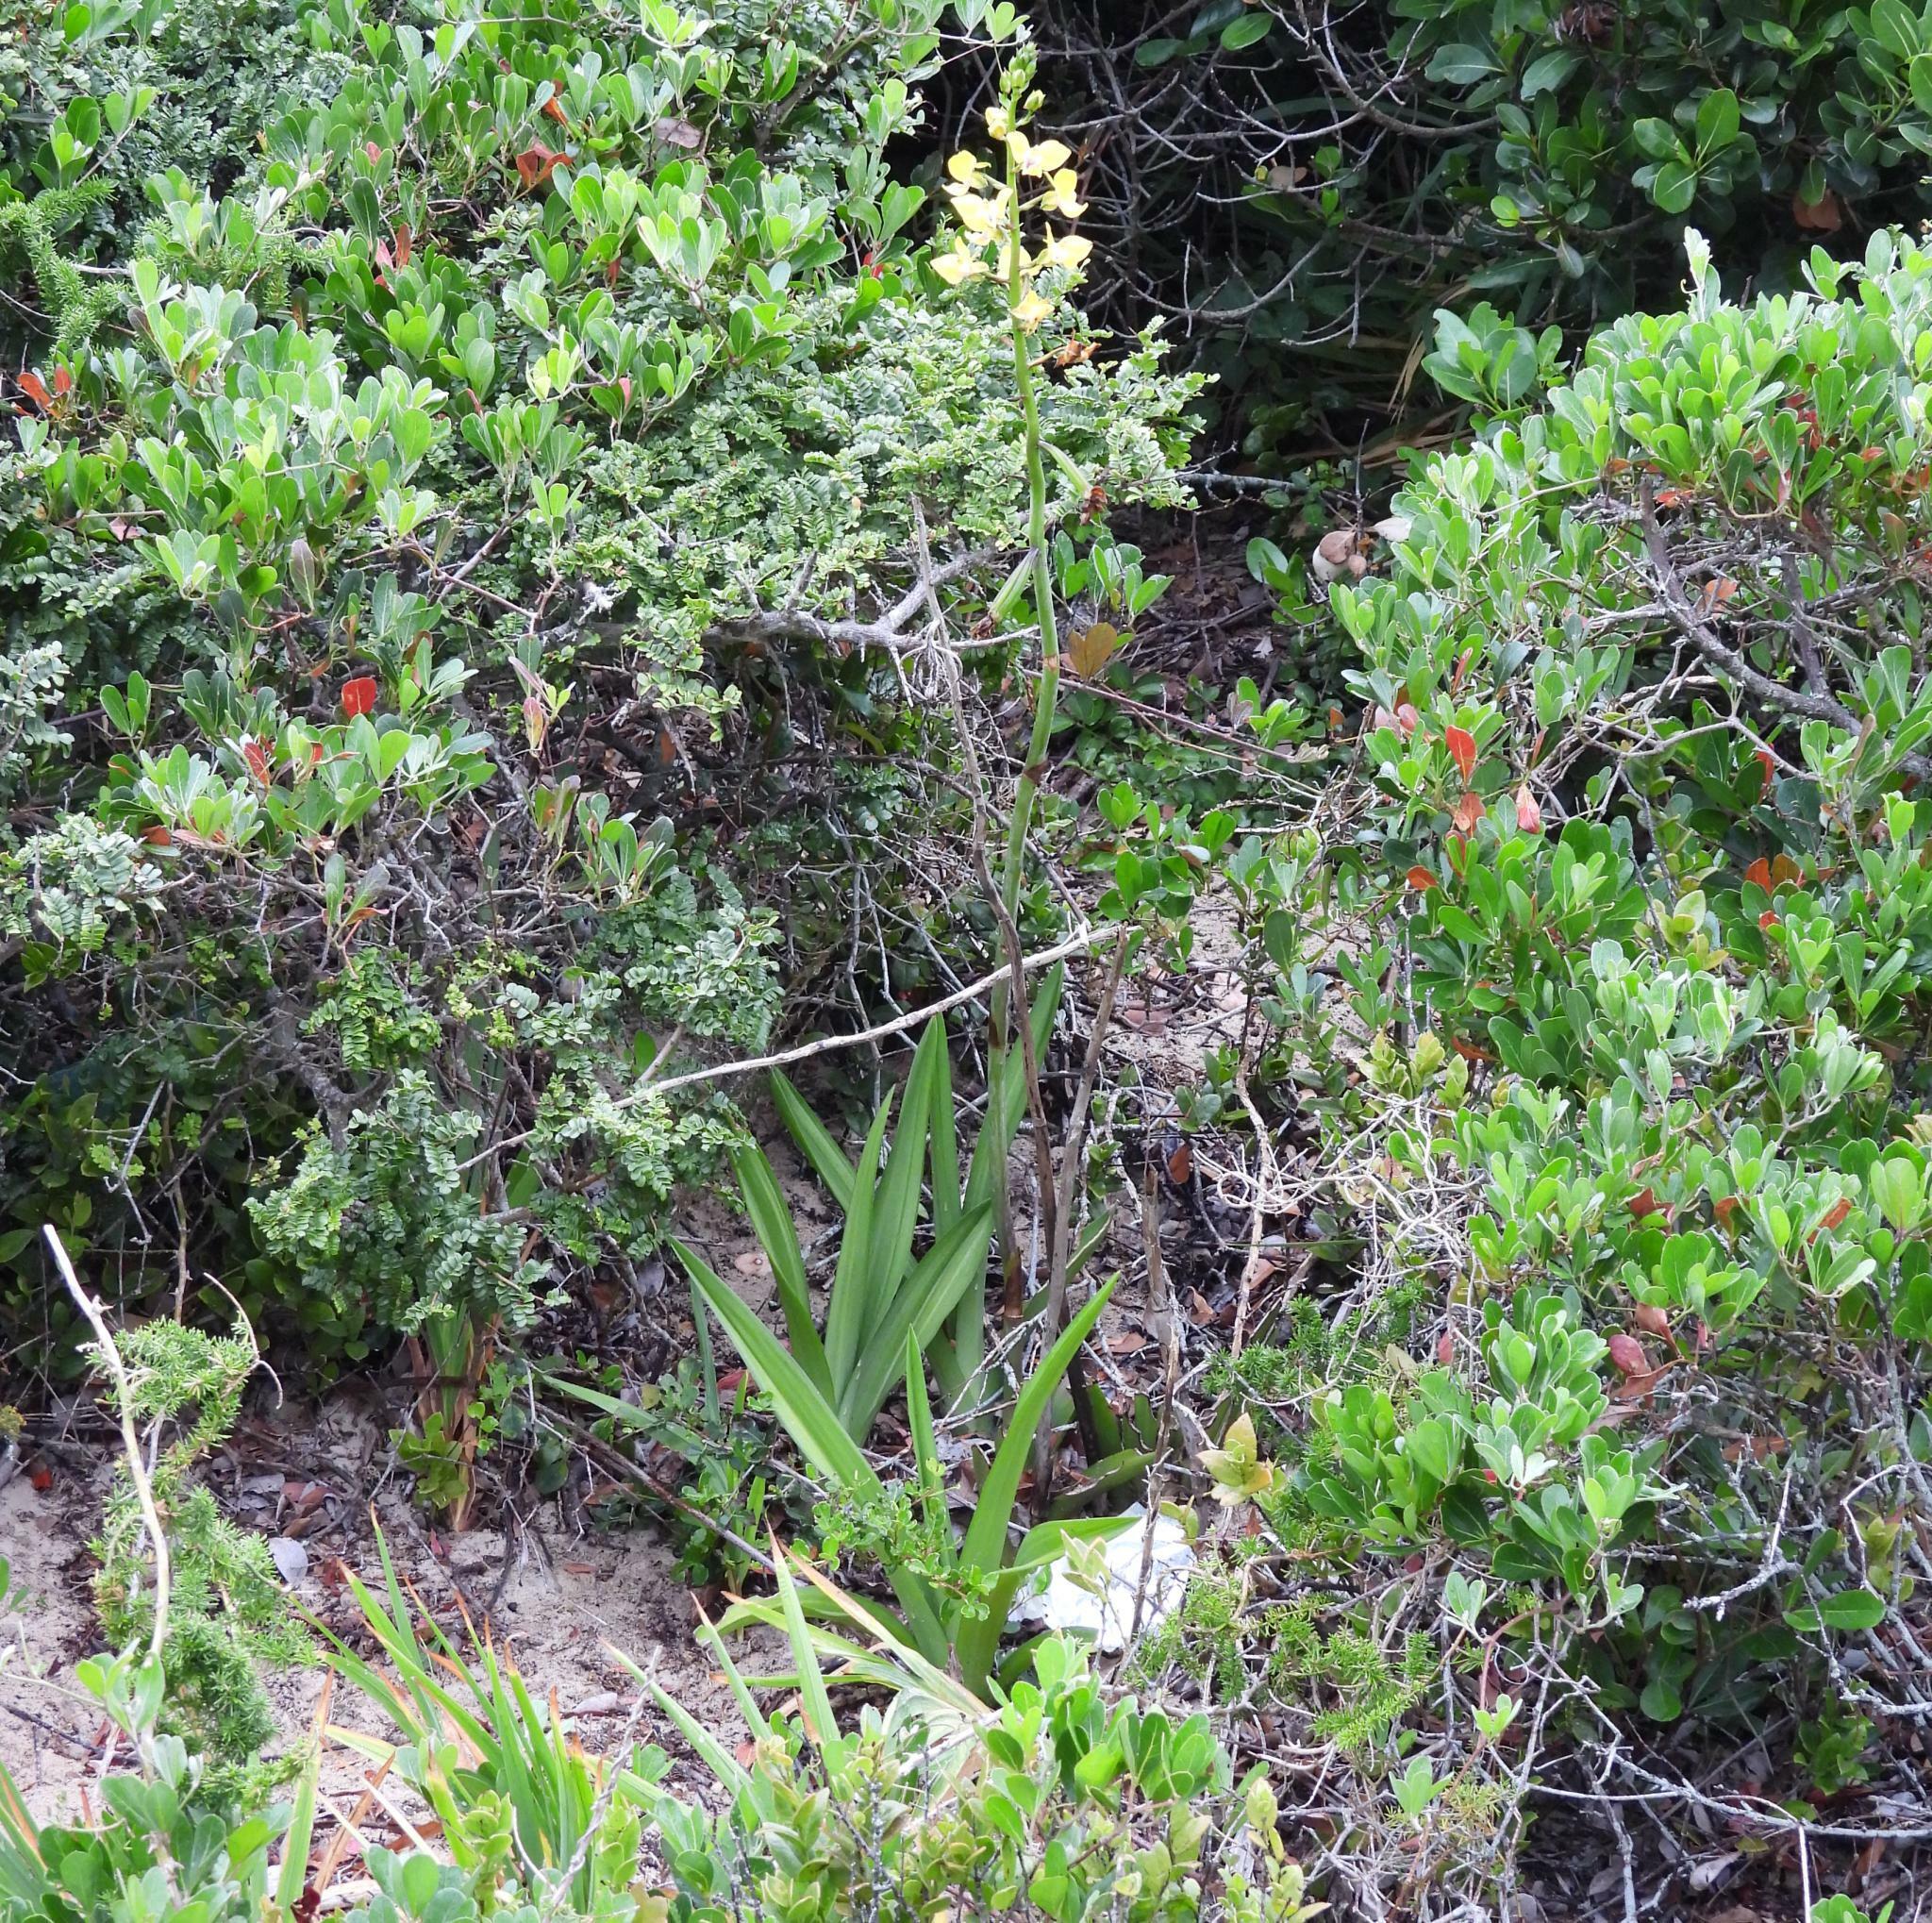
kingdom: Plantae
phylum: Tracheophyta
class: Liliopsida
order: Asparagales
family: Orchidaceae
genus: Eulophia
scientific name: Eulophia speciosa
